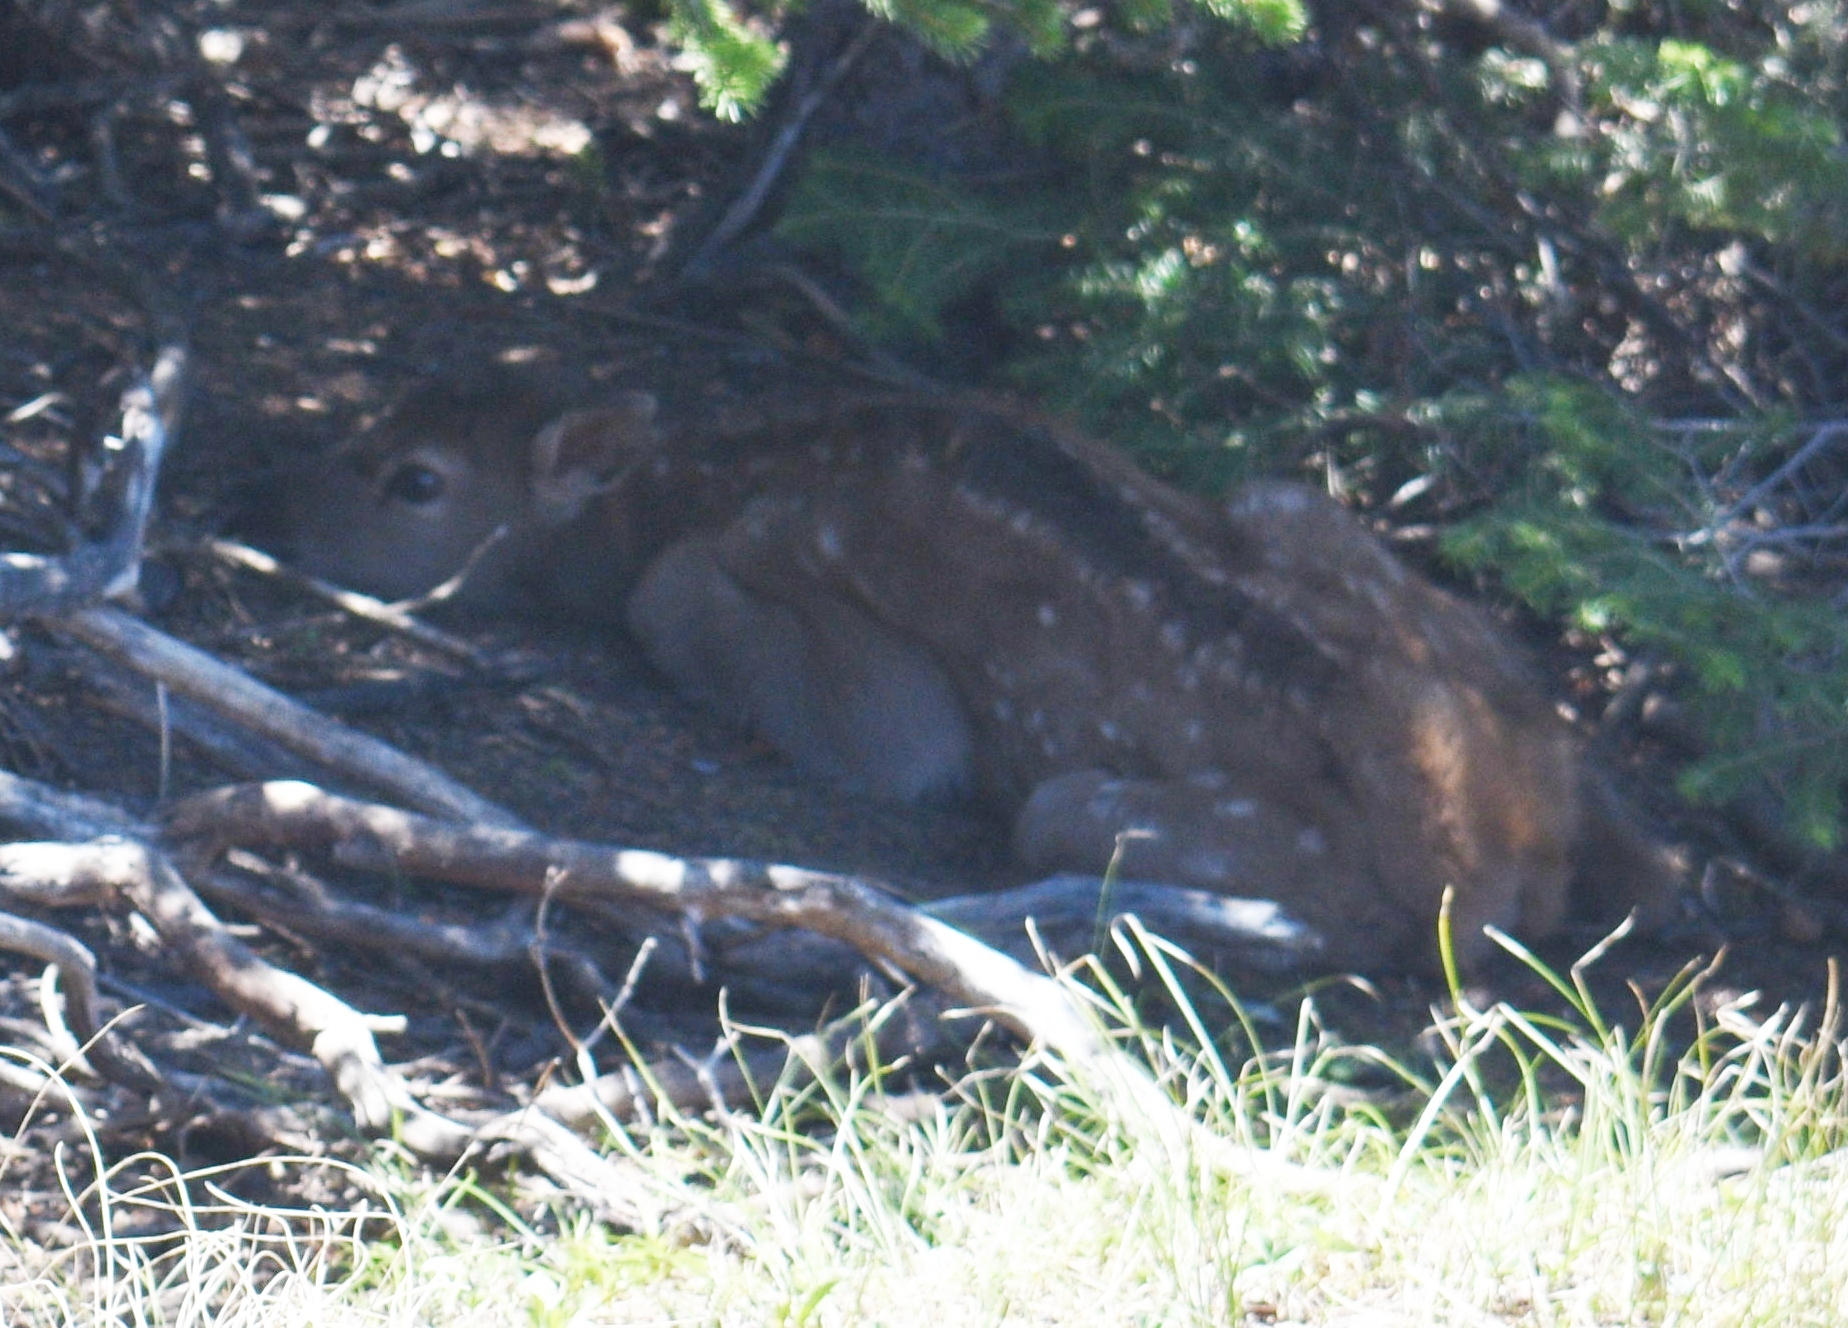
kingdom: Animalia
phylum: Chordata
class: Mammalia
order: Artiodactyla
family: Cervidae
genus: Odocoileus
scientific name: Odocoileus hemionus
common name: Mule deer
